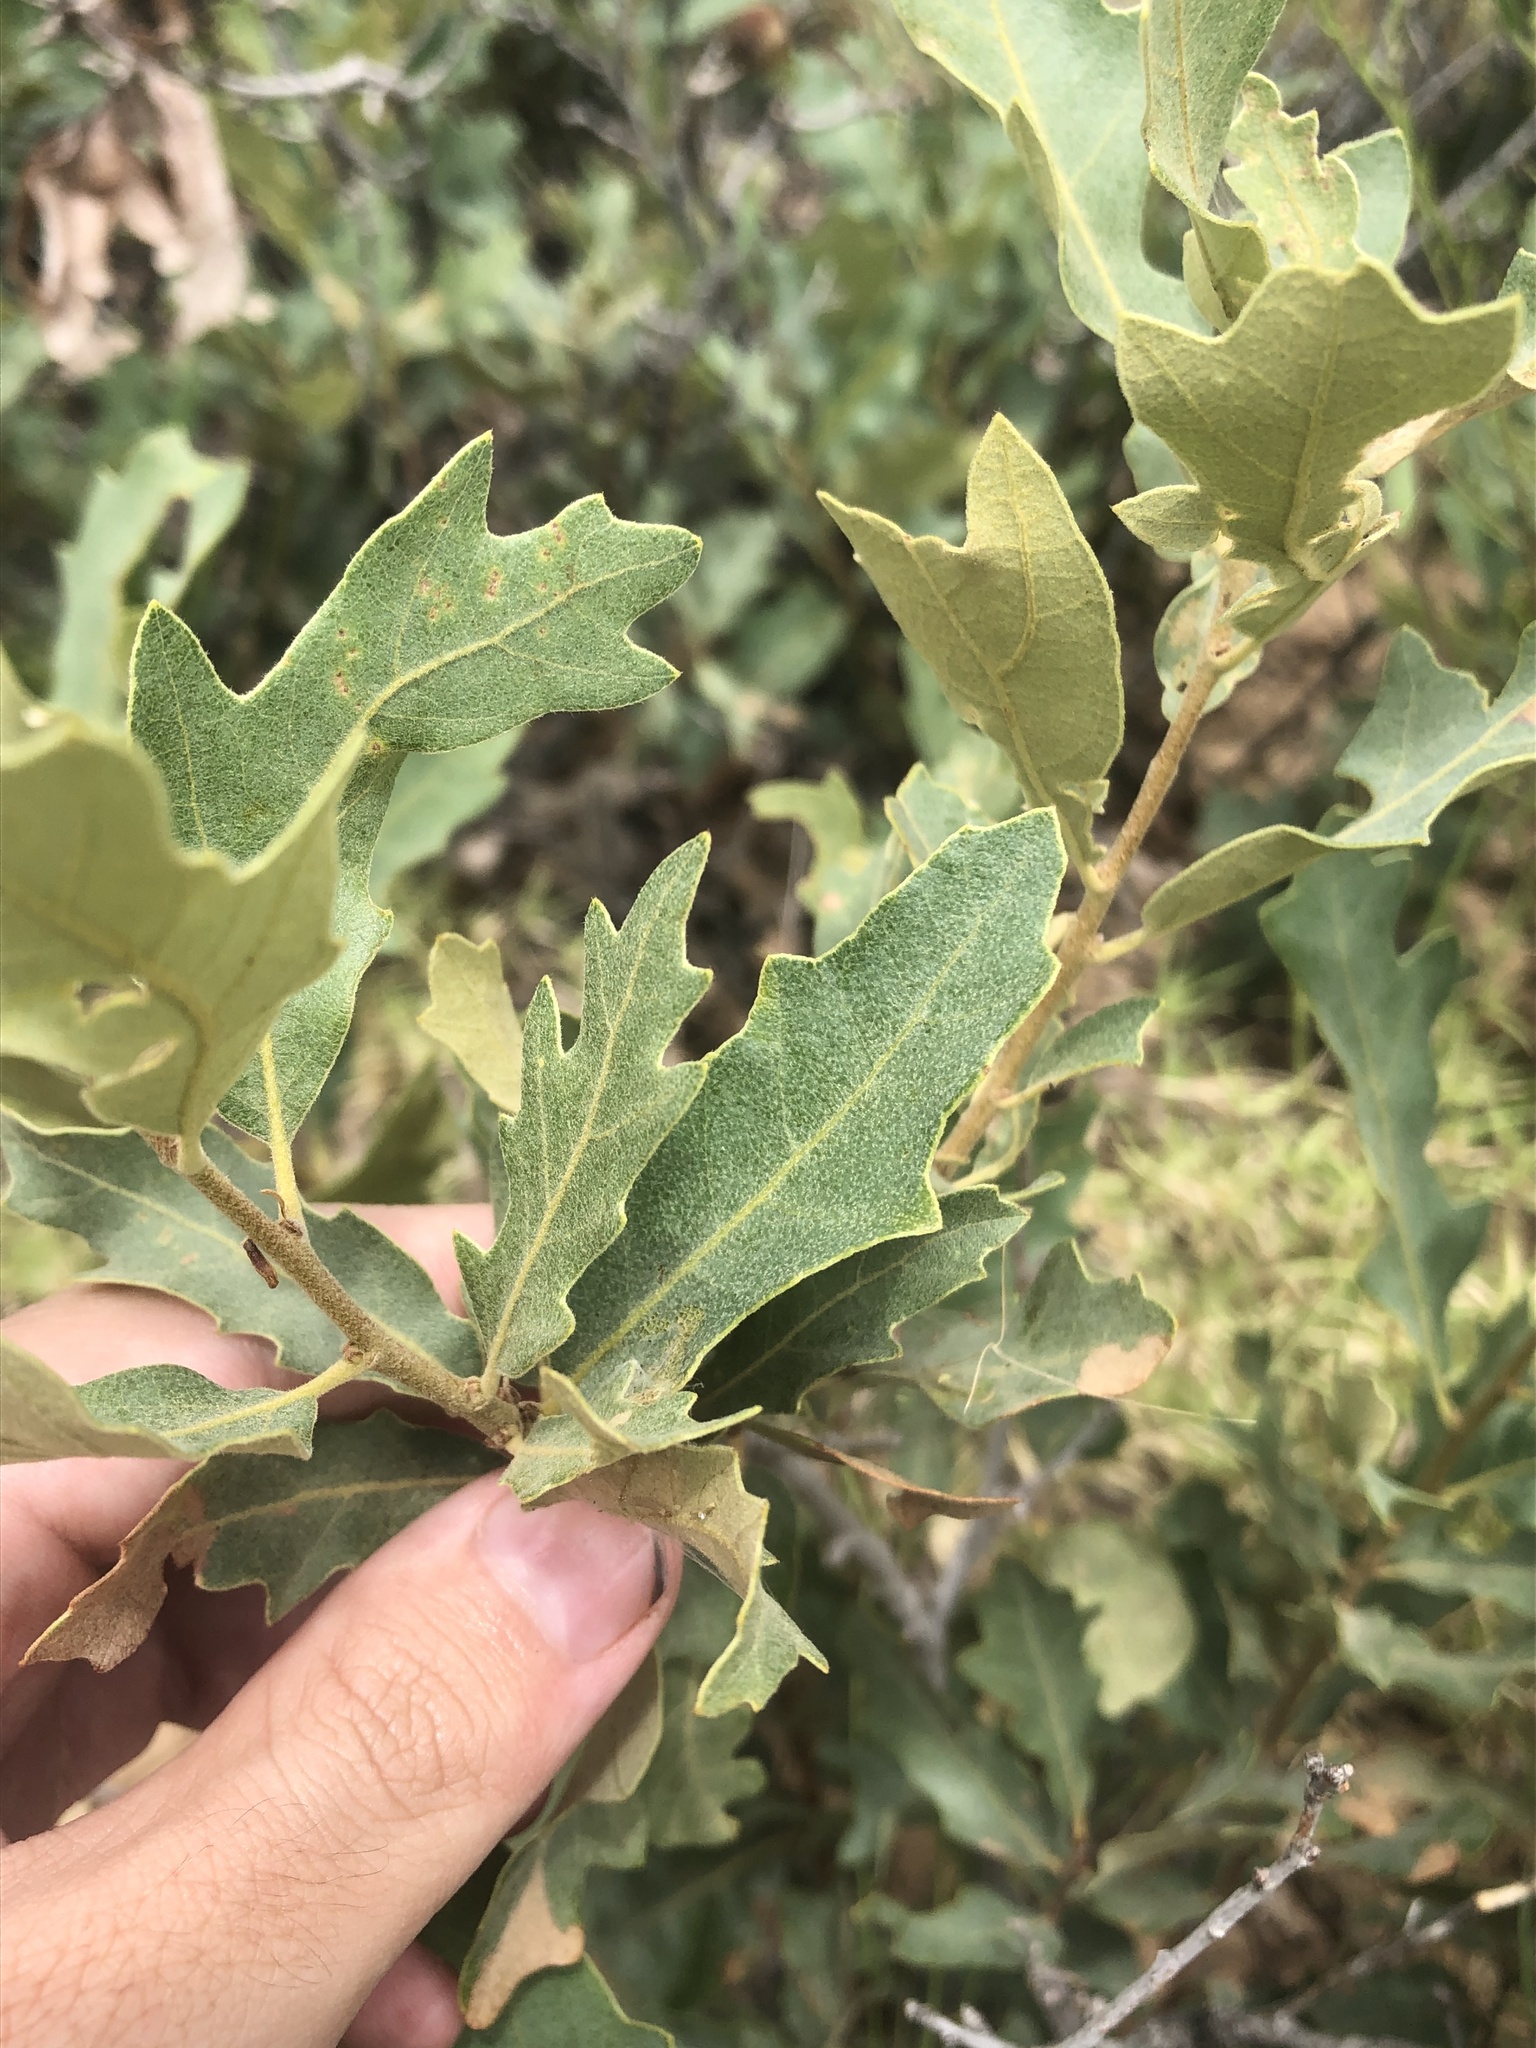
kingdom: Plantae
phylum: Tracheophyta
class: Magnoliopsida
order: Fagales
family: Fagaceae
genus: Quercus
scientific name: Quercus havardii
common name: Shinnery oak
